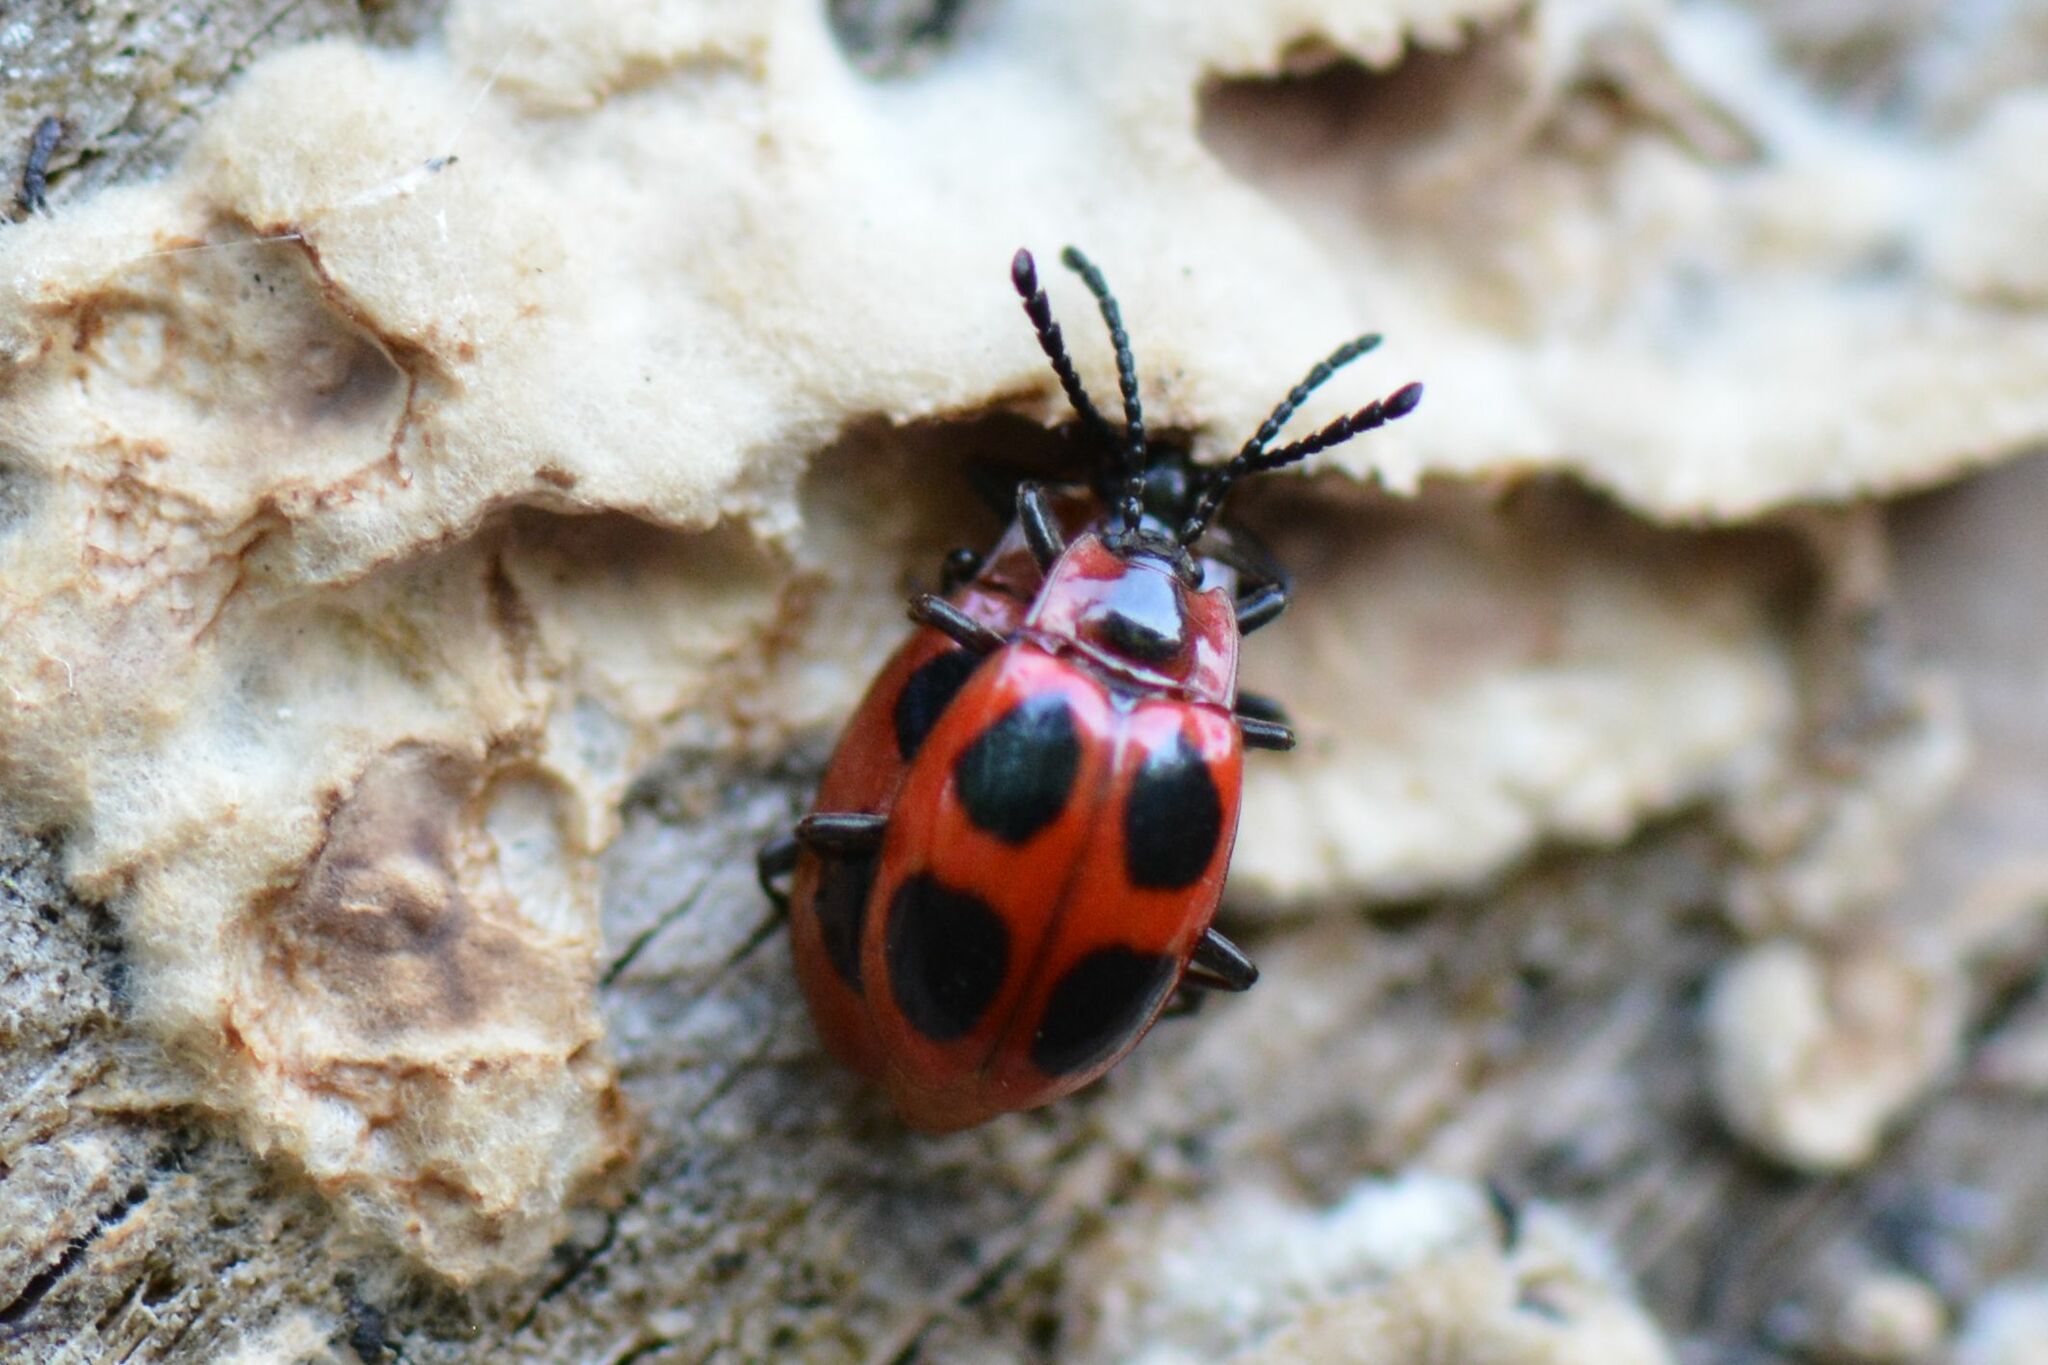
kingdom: Animalia
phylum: Arthropoda
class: Insecta
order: Coleoptera
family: Endomychidae
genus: Endomychus
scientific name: Endomychus coccineus
